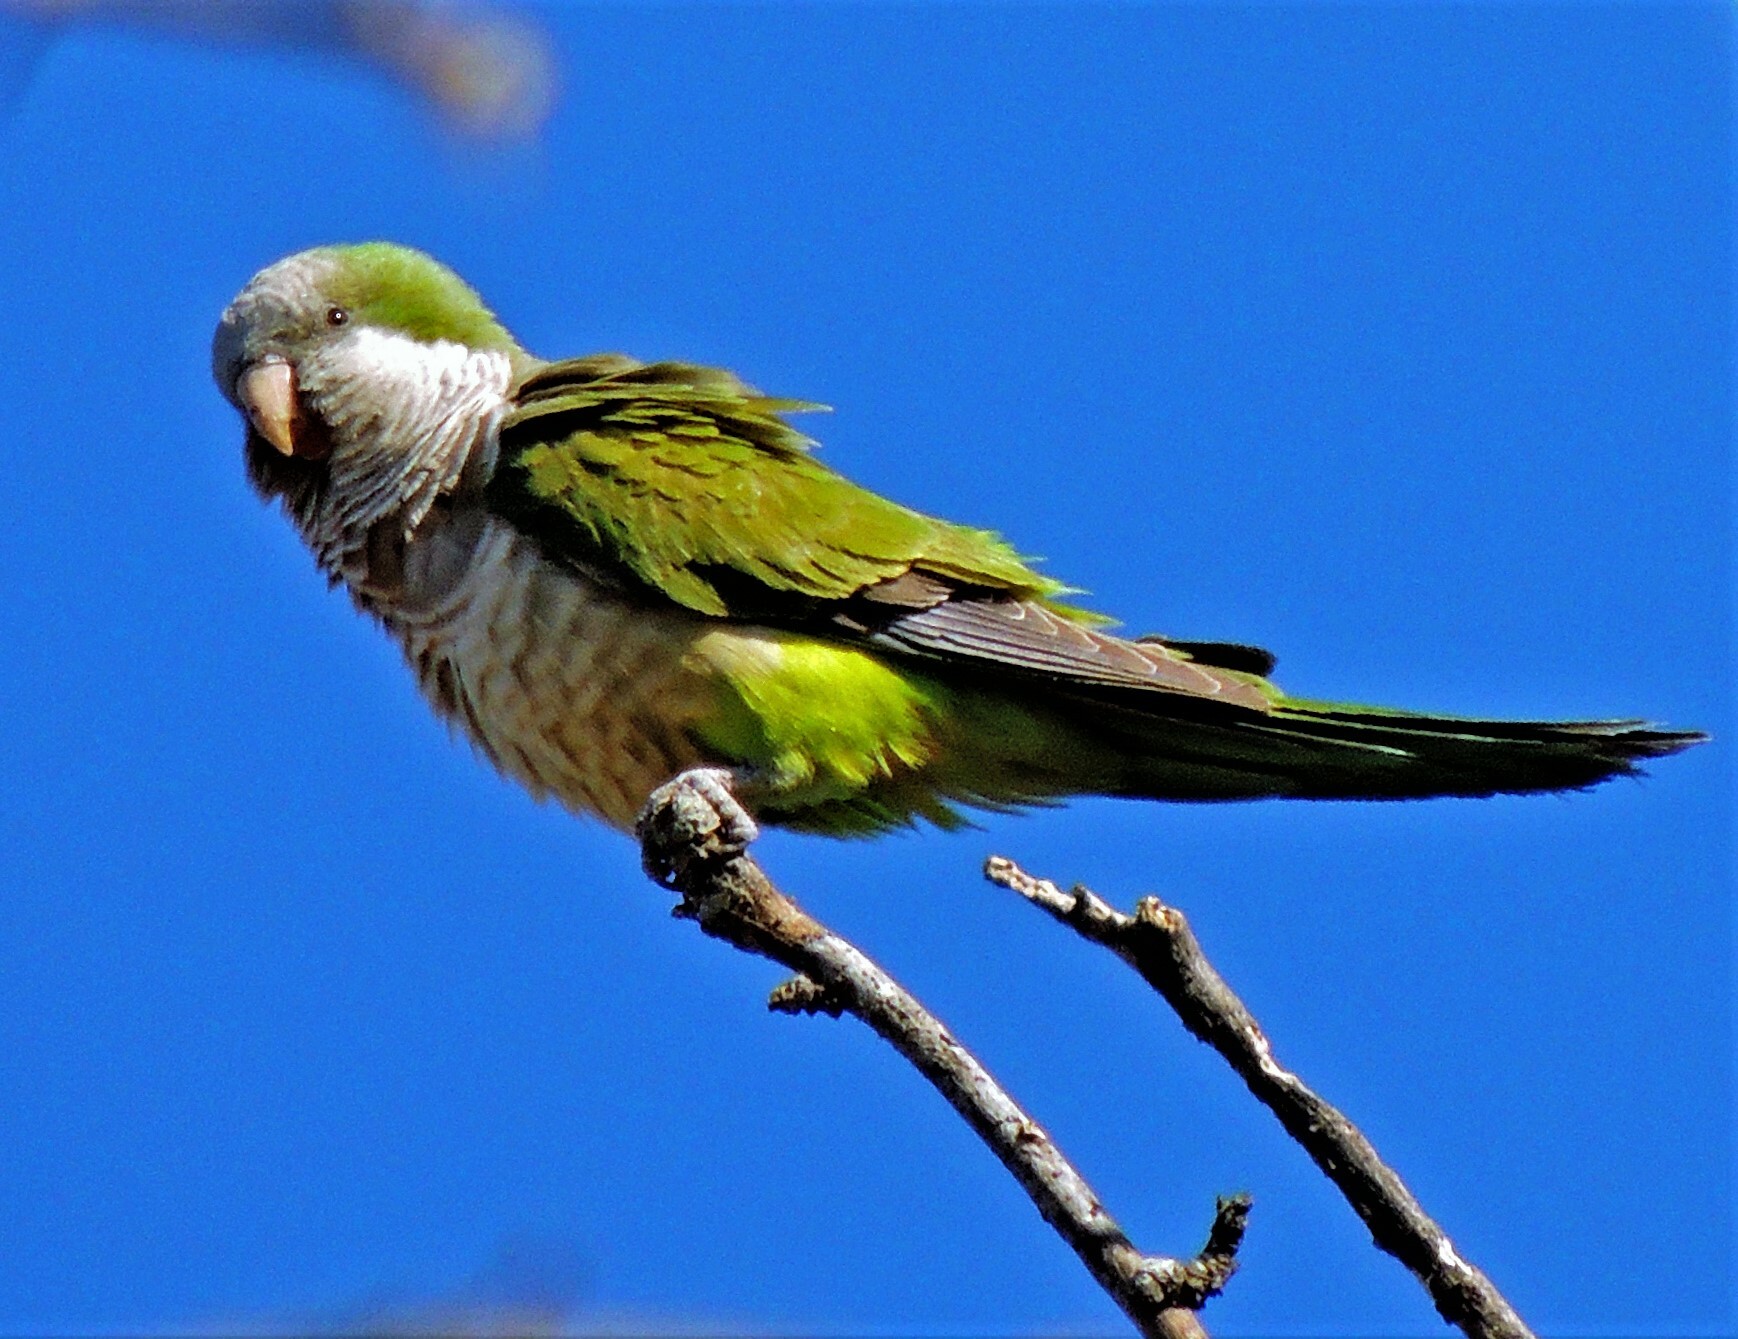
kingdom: Animalia
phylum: Chordata
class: Aves
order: Psittaciformes
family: Psittacidae
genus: Myiopsitta
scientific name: Myiopsitta monachus
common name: Monk parakeet
